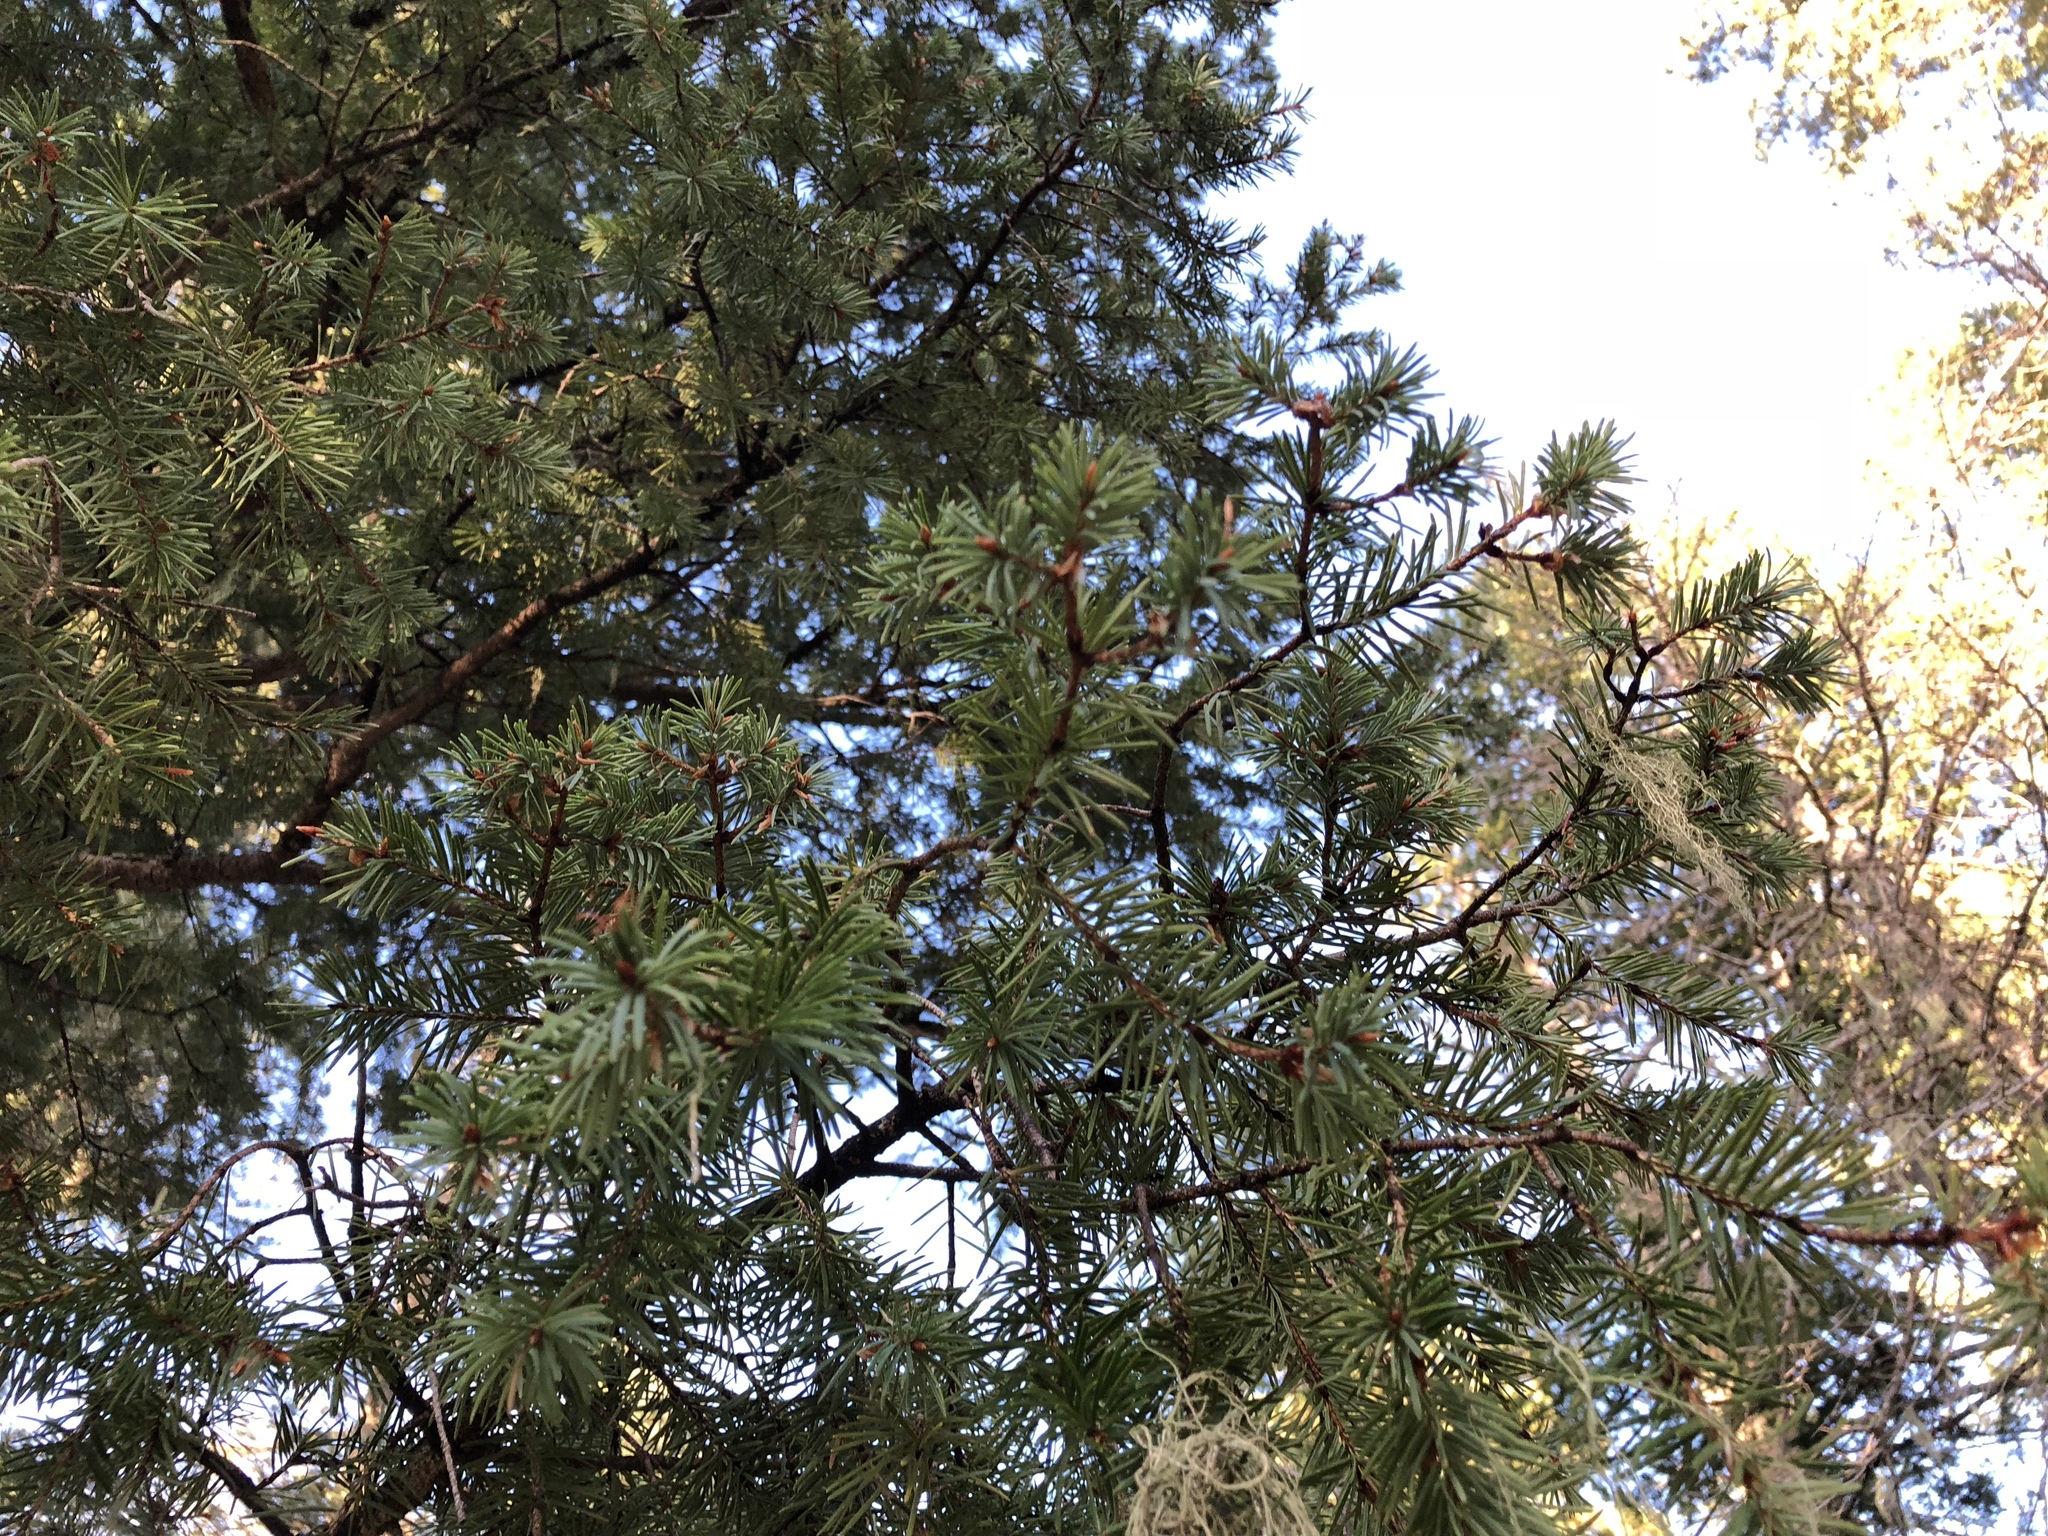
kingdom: Plantae
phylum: Tracheophyta
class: Pinopsida
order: Pinales
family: Pinaceae
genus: Pseudotsuga
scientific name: Pseudotsuga menziesii
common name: Douglas fir
